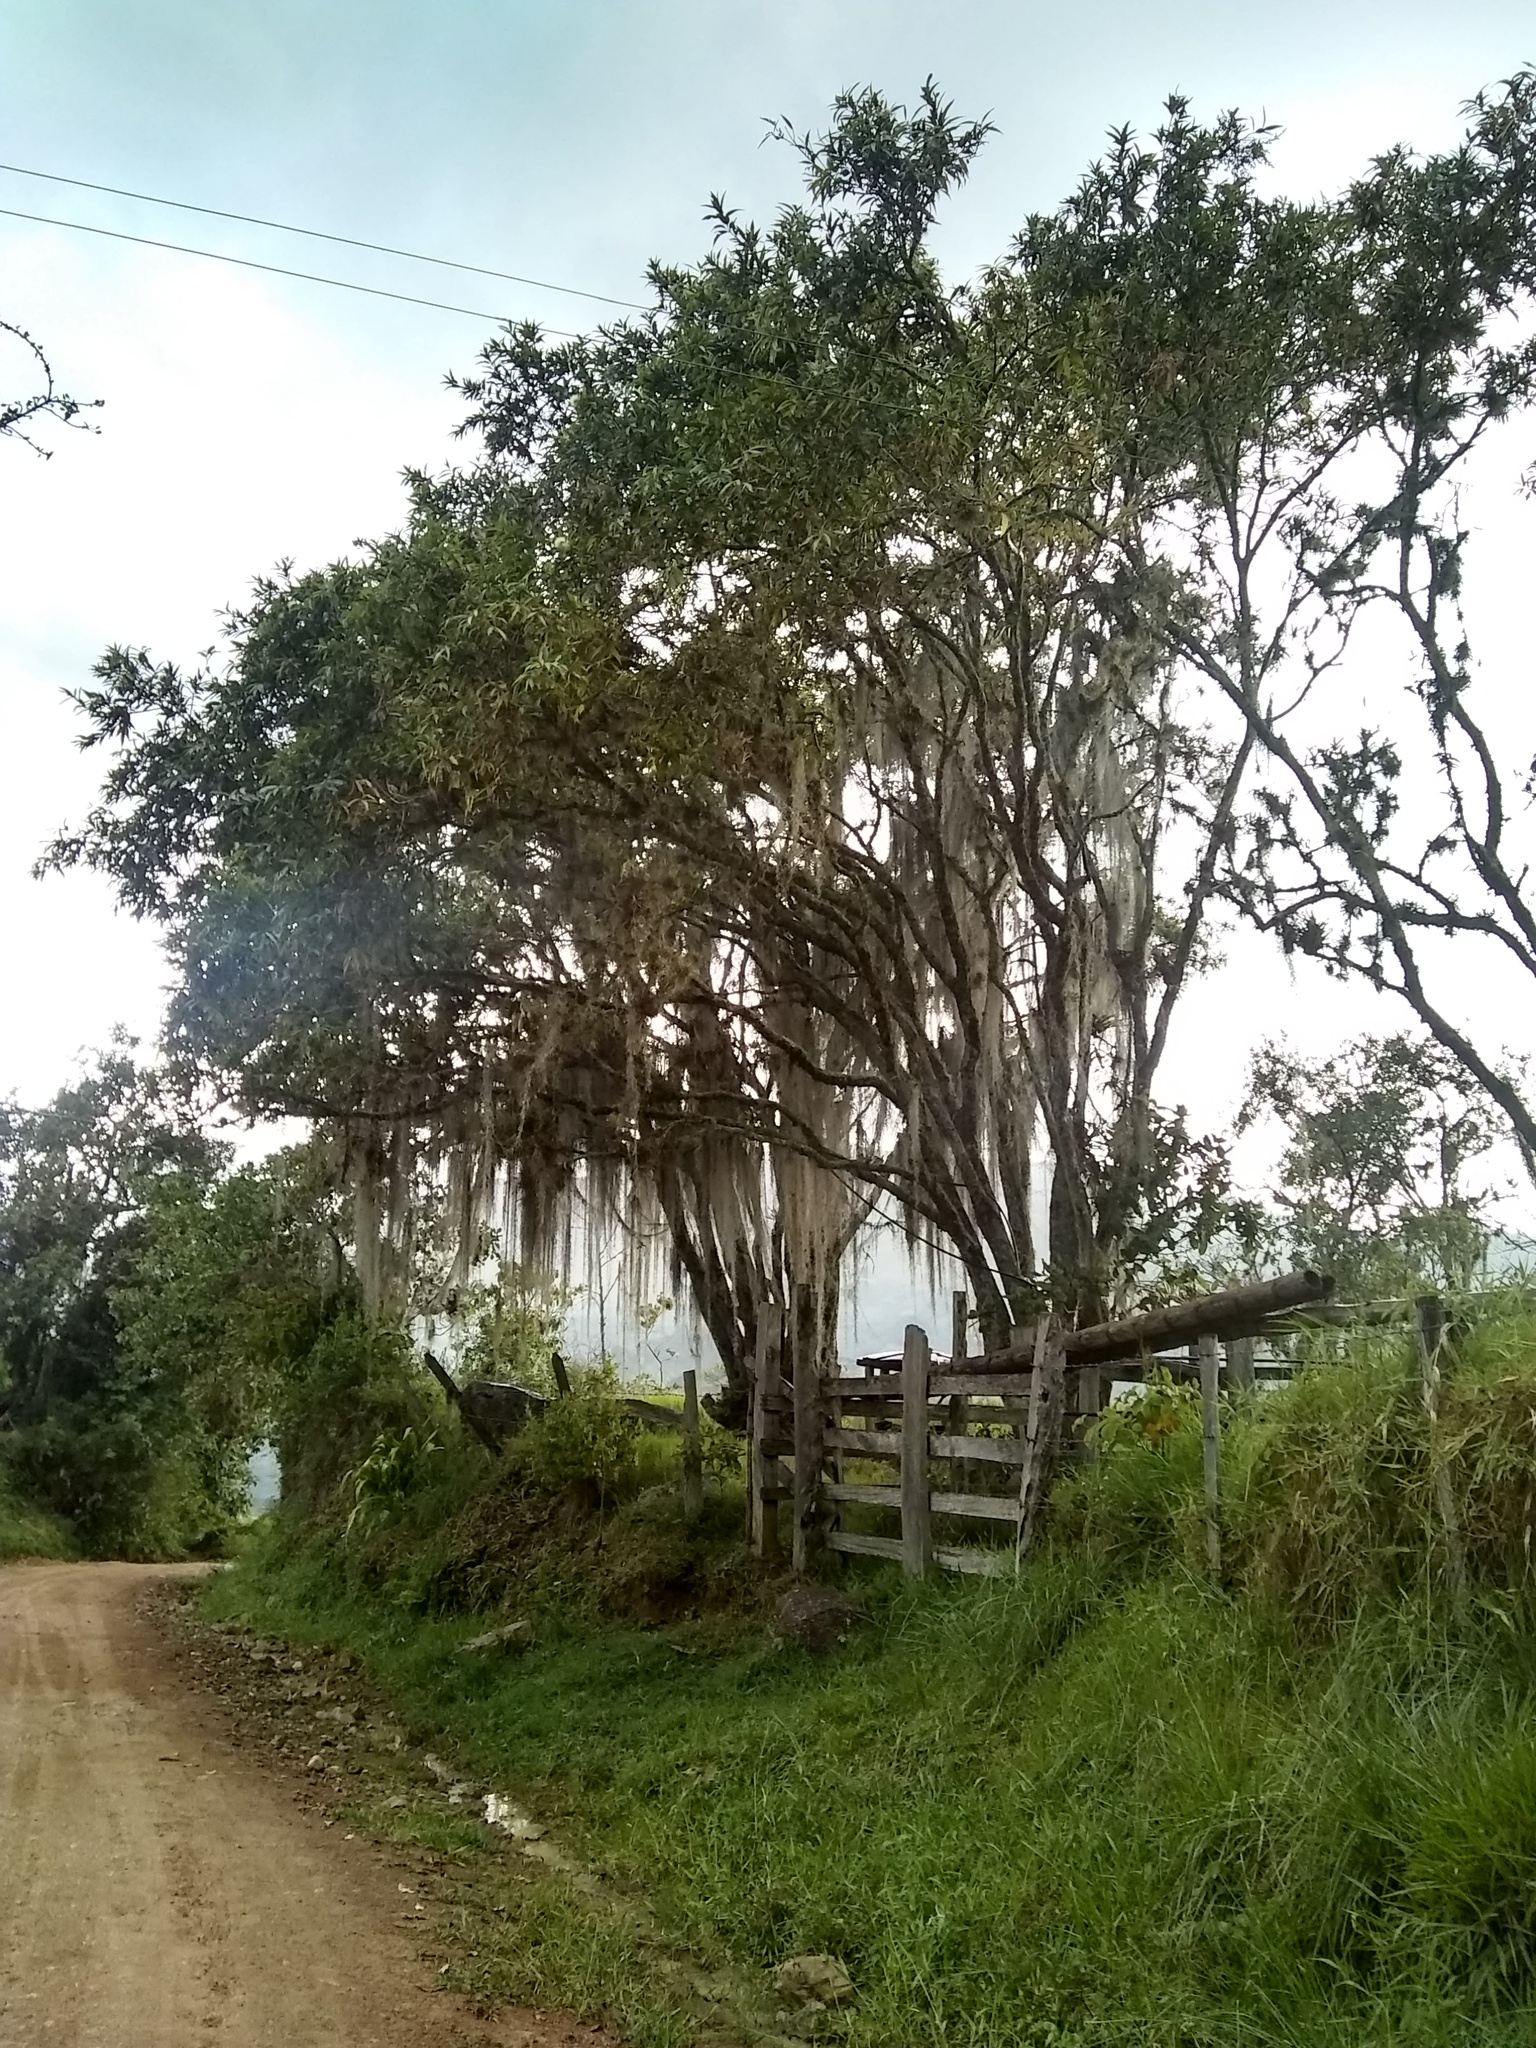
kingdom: Plantae
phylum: Tracheophyta
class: Liliopsida
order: Poales
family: Bromeliaceae
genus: Tillandsia
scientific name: Tillandsia usneoides
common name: Spanish moss
